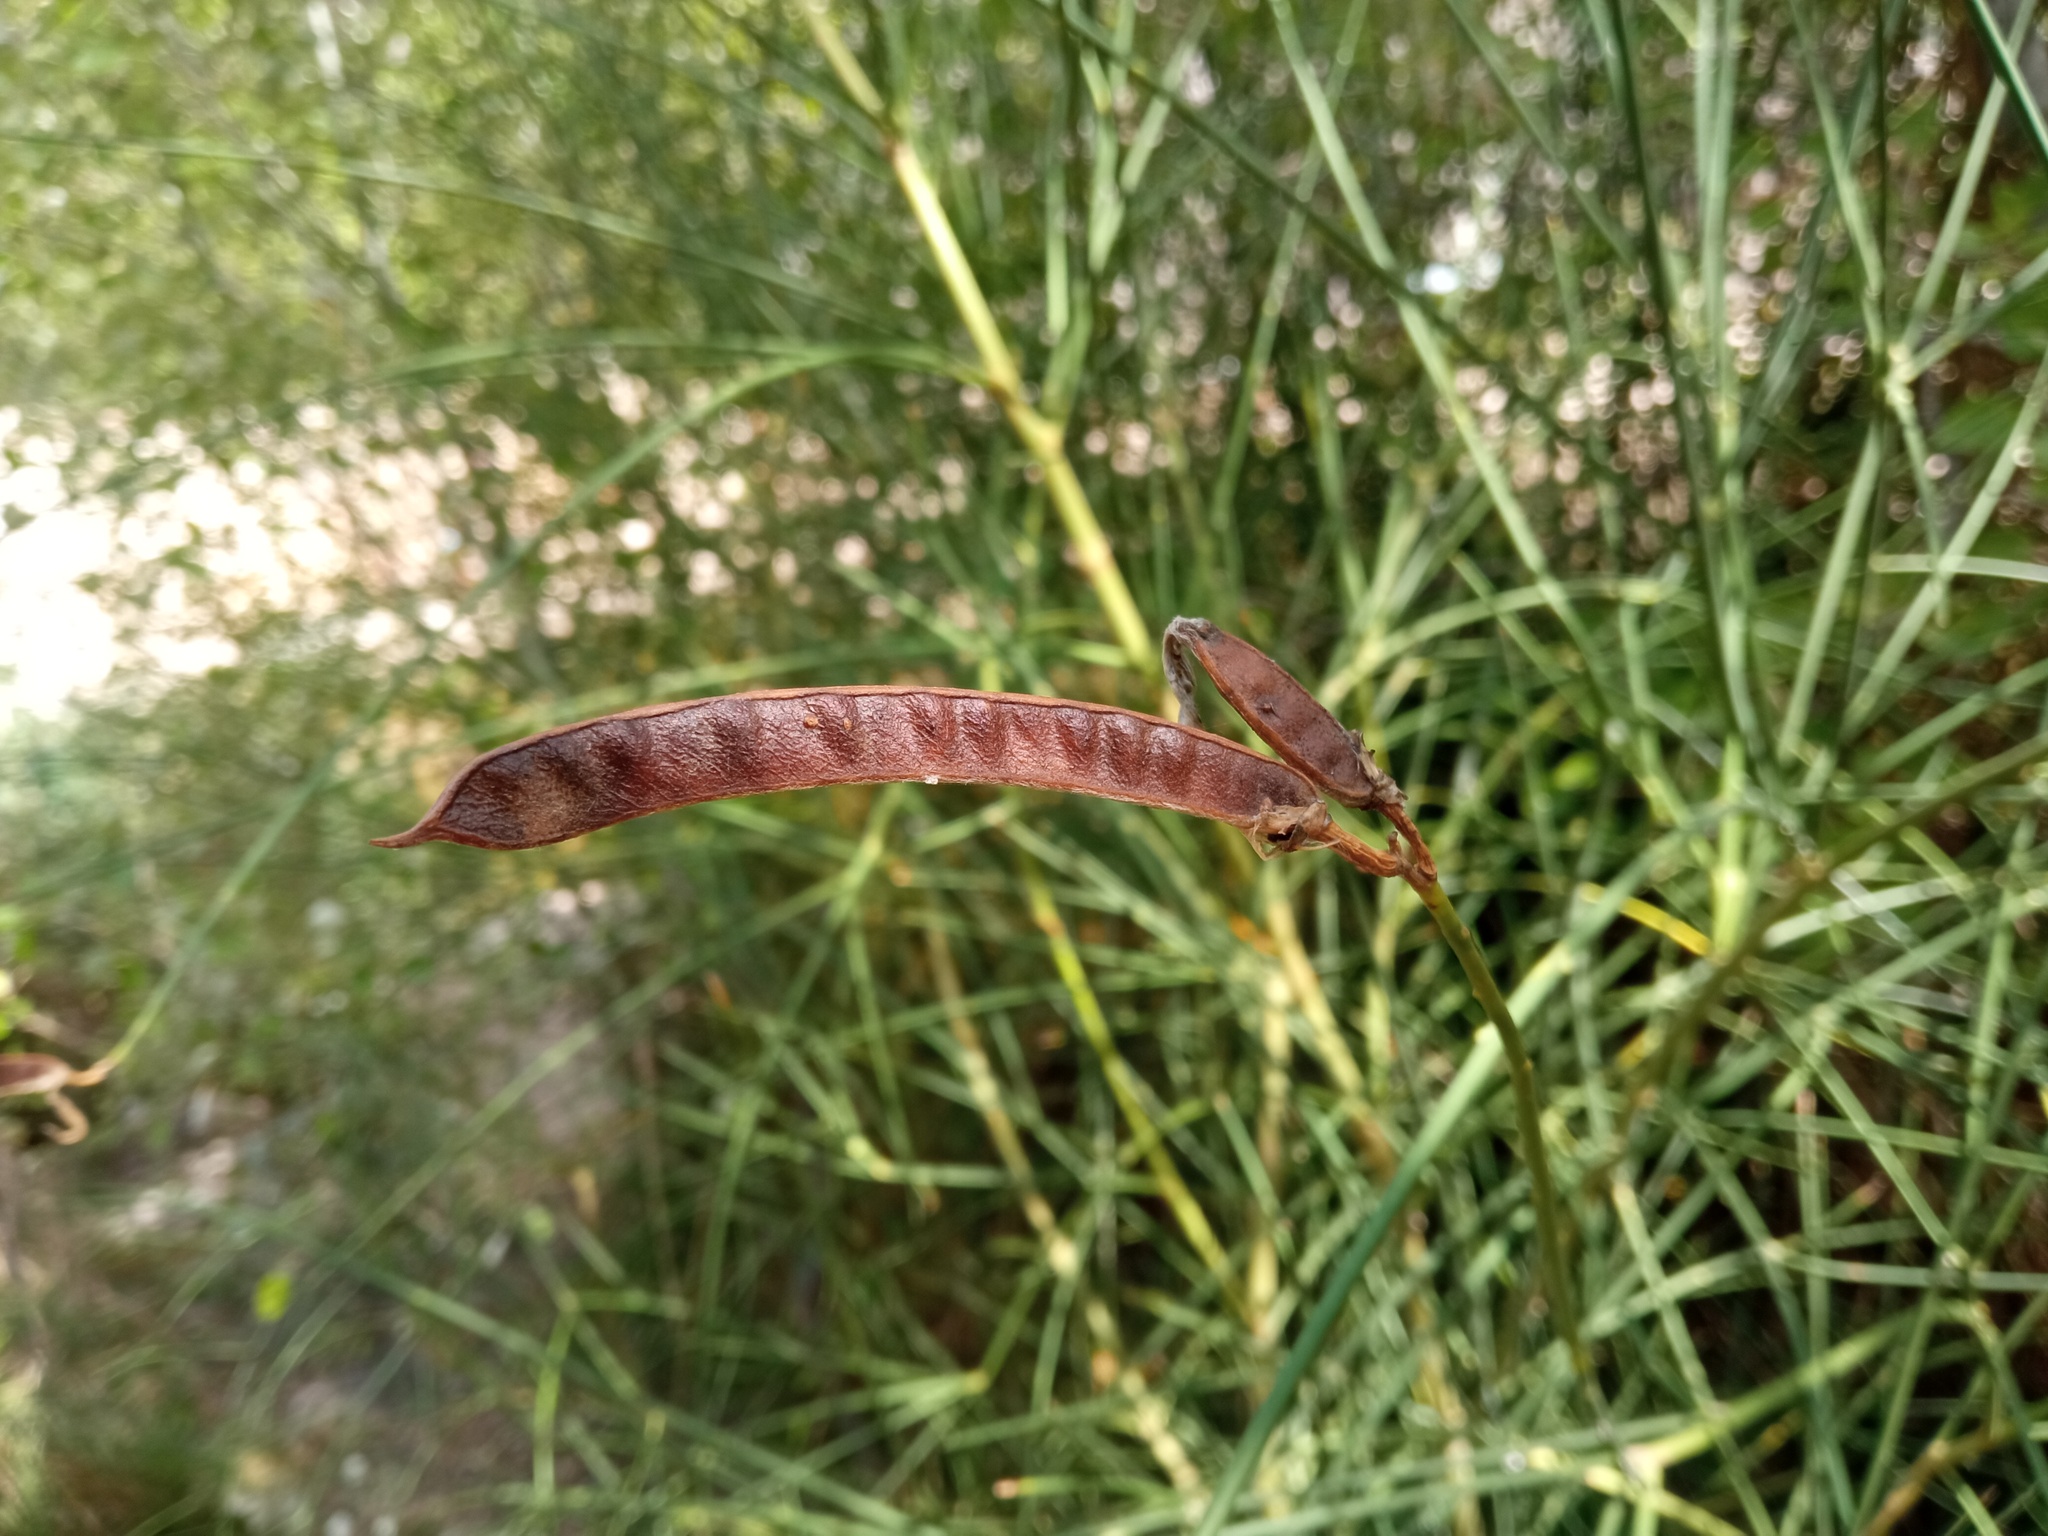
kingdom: Plantae
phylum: Tracheophyta
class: Magnoliopsida
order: Fabales
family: Fabaceae
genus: Spartium
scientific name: Spartium junceum
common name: Spanish broom
